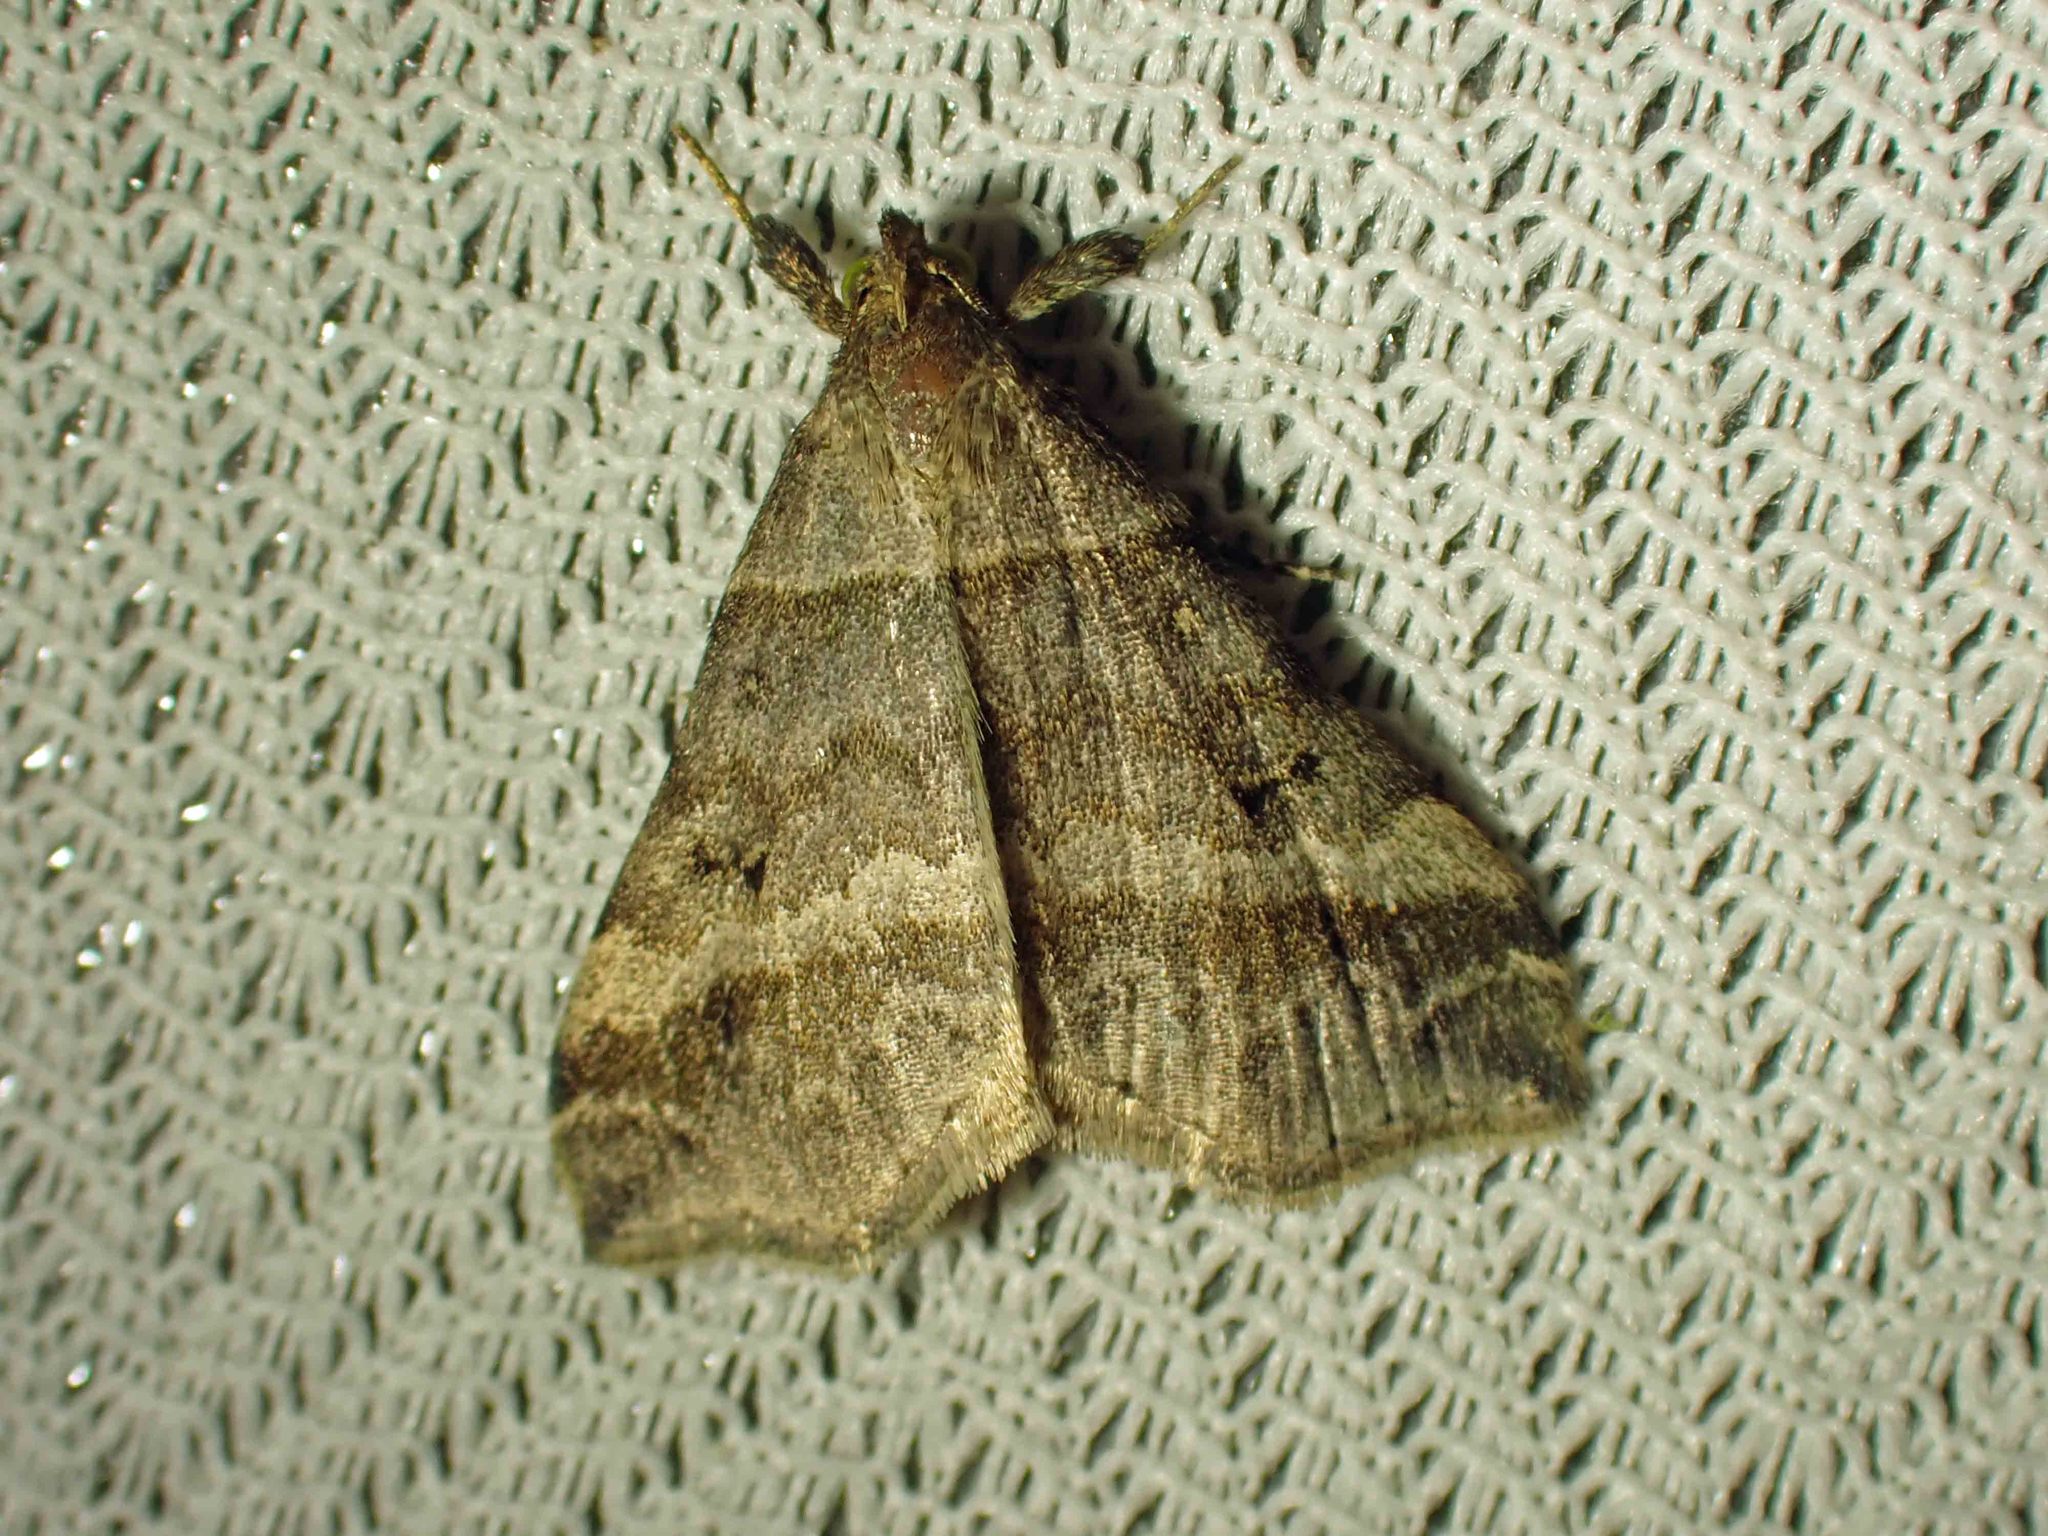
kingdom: Animalia
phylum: Arthropoda
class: Insecta
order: Lepidoptera
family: Erebidae
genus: Phaeolita
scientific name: Phaeolita pyramusalis
